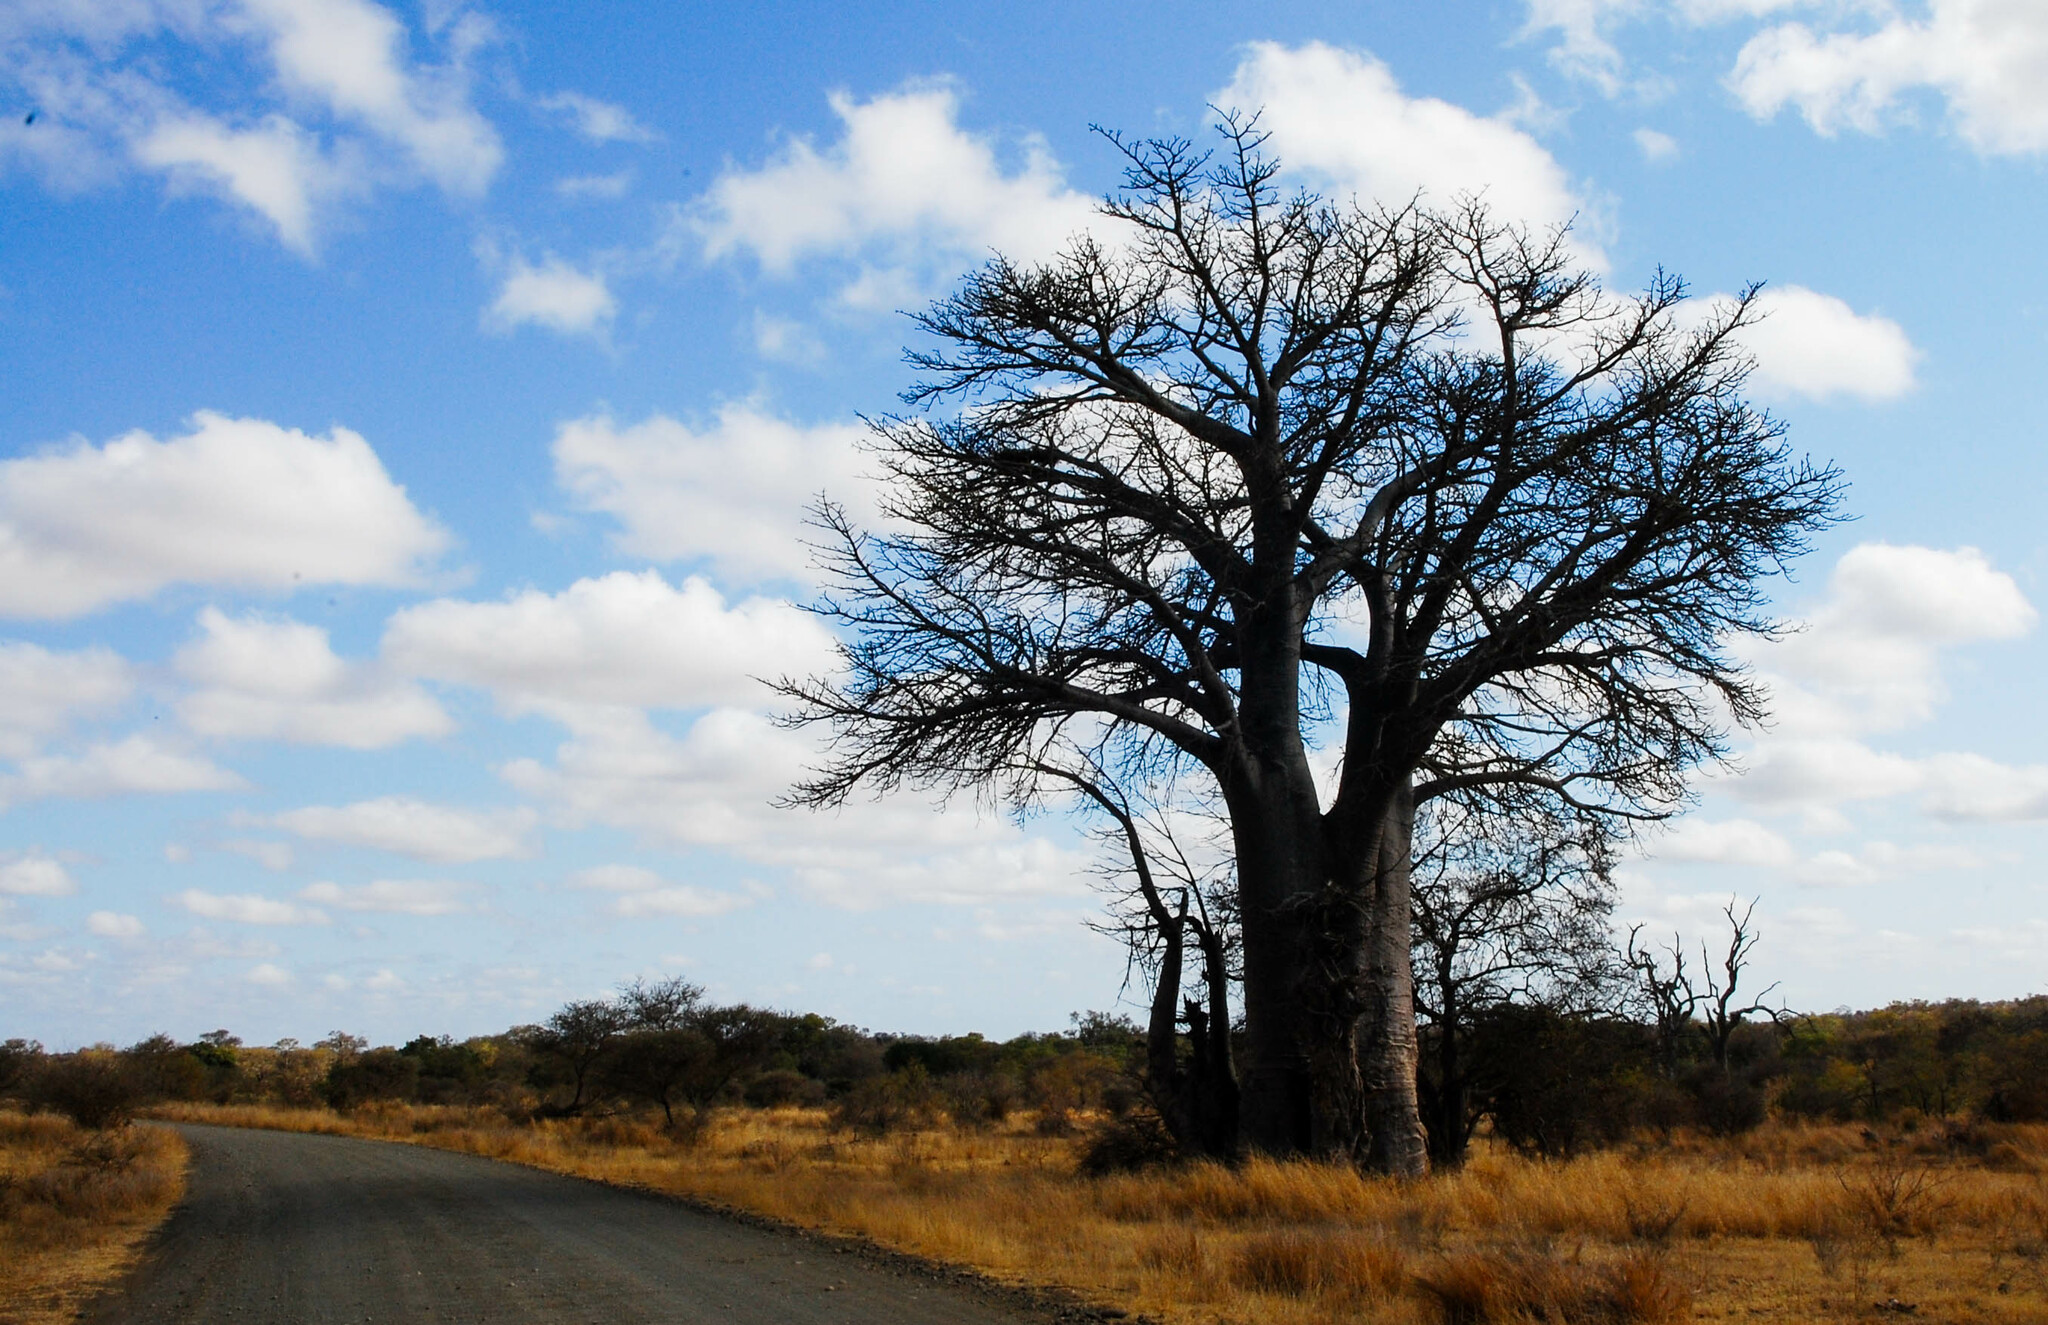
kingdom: Plantae
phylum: Tracheophyta
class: Magnoliopsida
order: Malvales
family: Malvaceae
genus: Adansonia
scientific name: Adansonia digitata
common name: Dead-rat-tree
